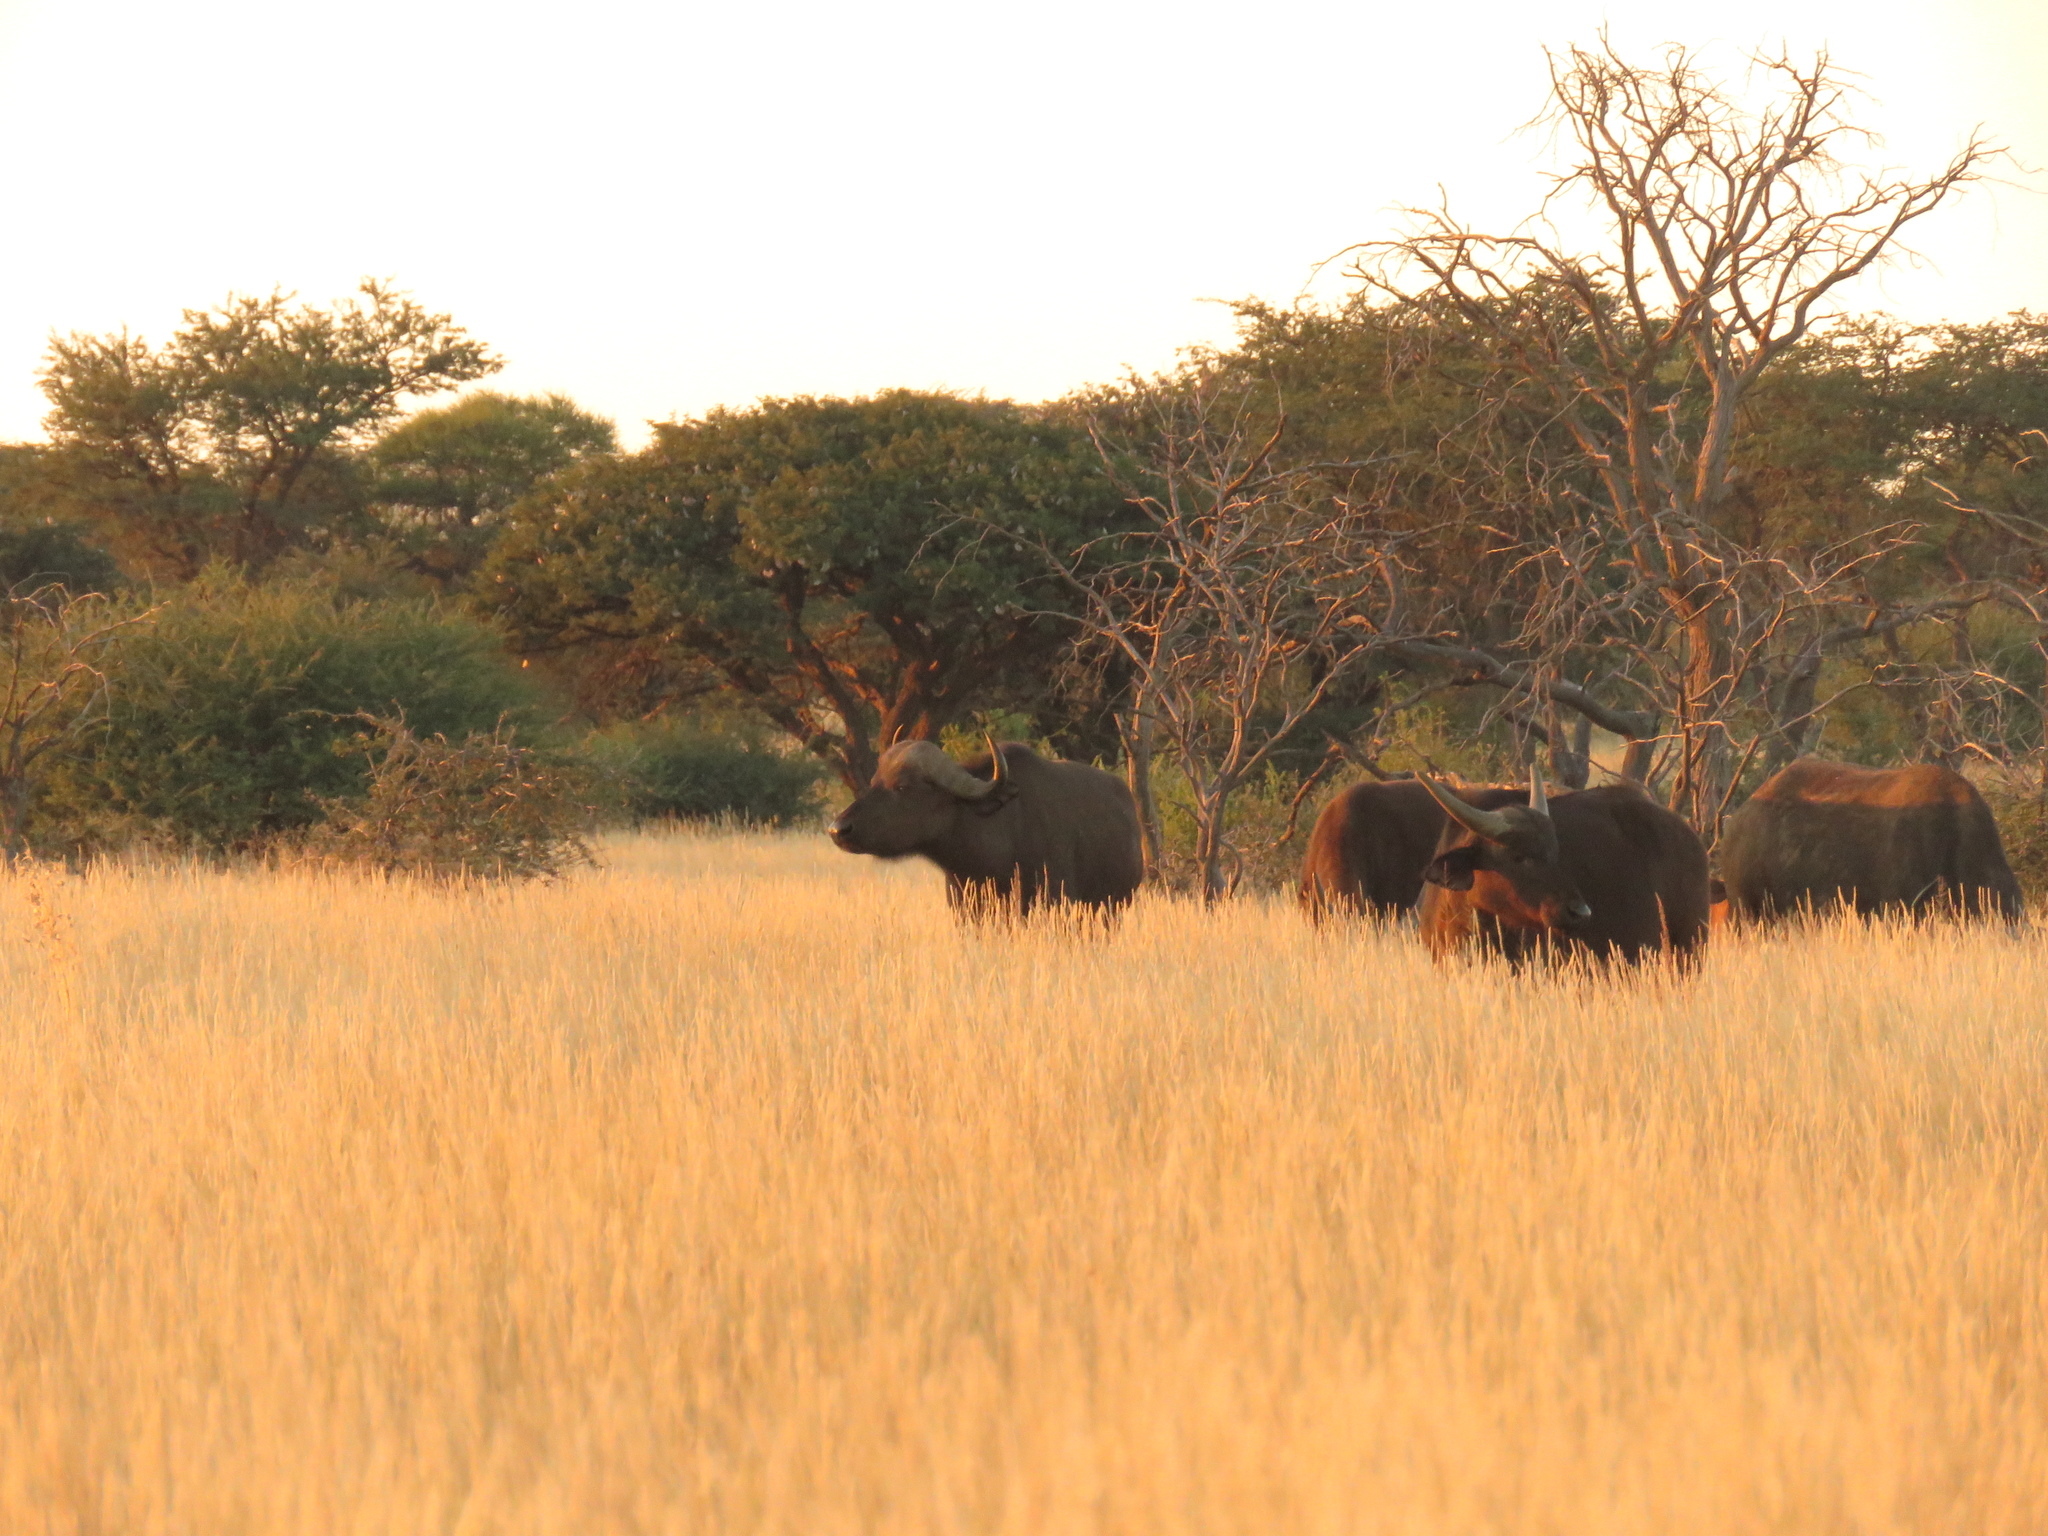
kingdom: Animalia
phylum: Chordata
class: Mammalia
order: Artiodactyla
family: Bovidae
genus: Syncerus
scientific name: Syncerus caffer
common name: African buffalo
